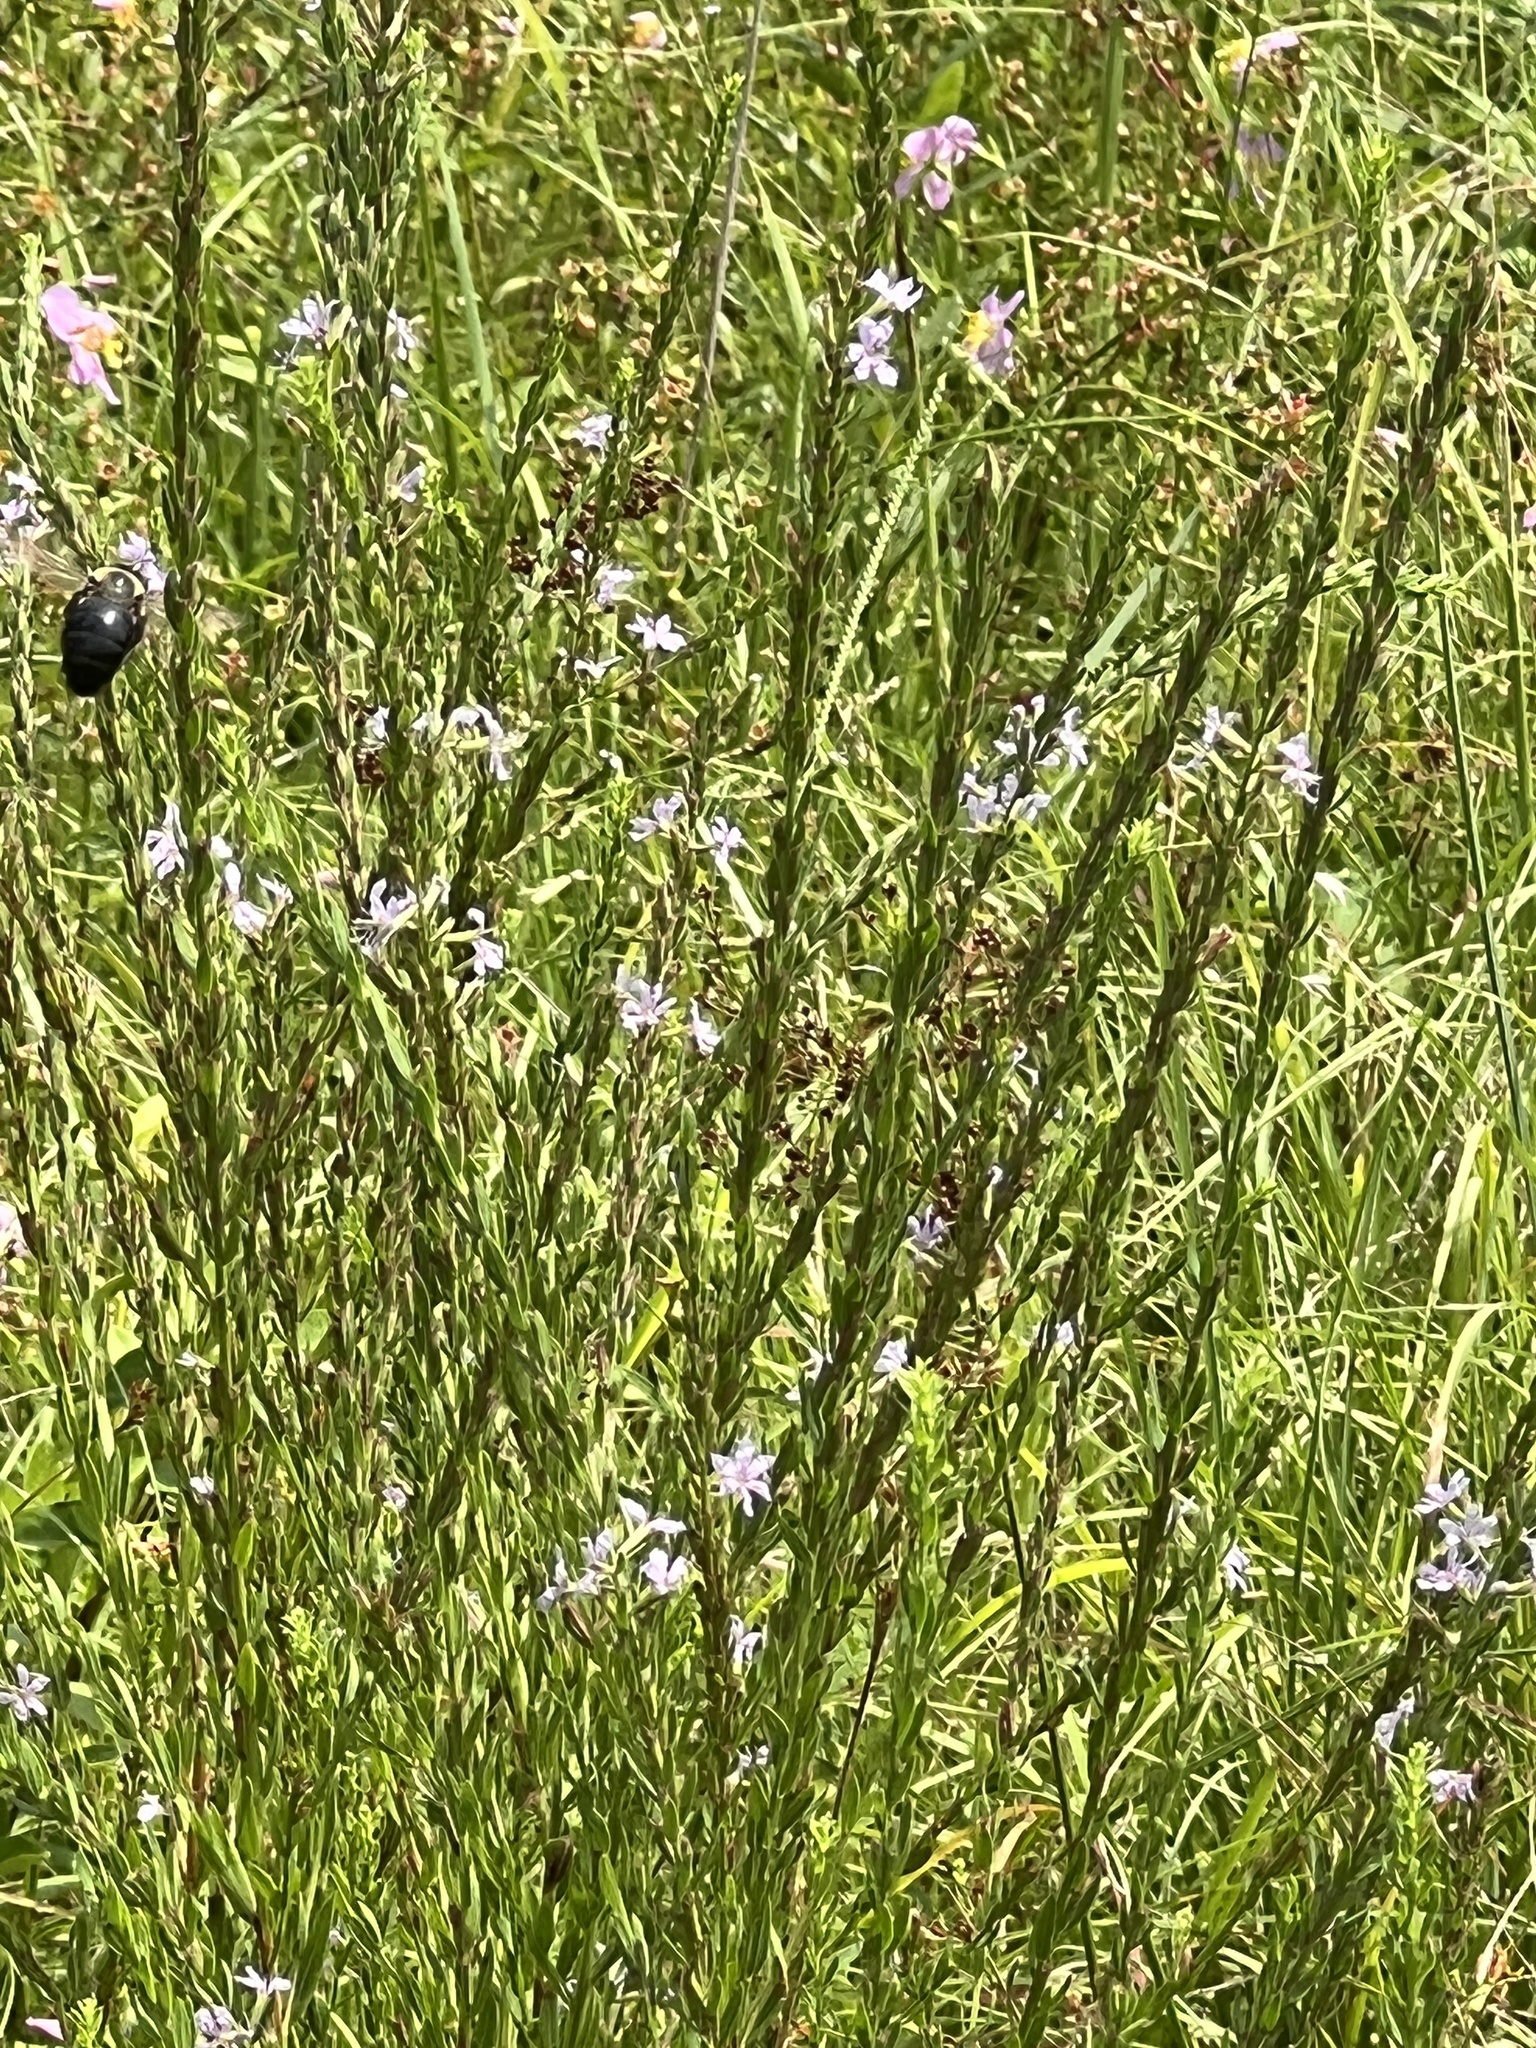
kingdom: Animalia
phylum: Arthropoda
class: Insecta
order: Hymenoptera
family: Apidae
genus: Xylocopa
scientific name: Xylocopa virginica
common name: Carpenter bee
